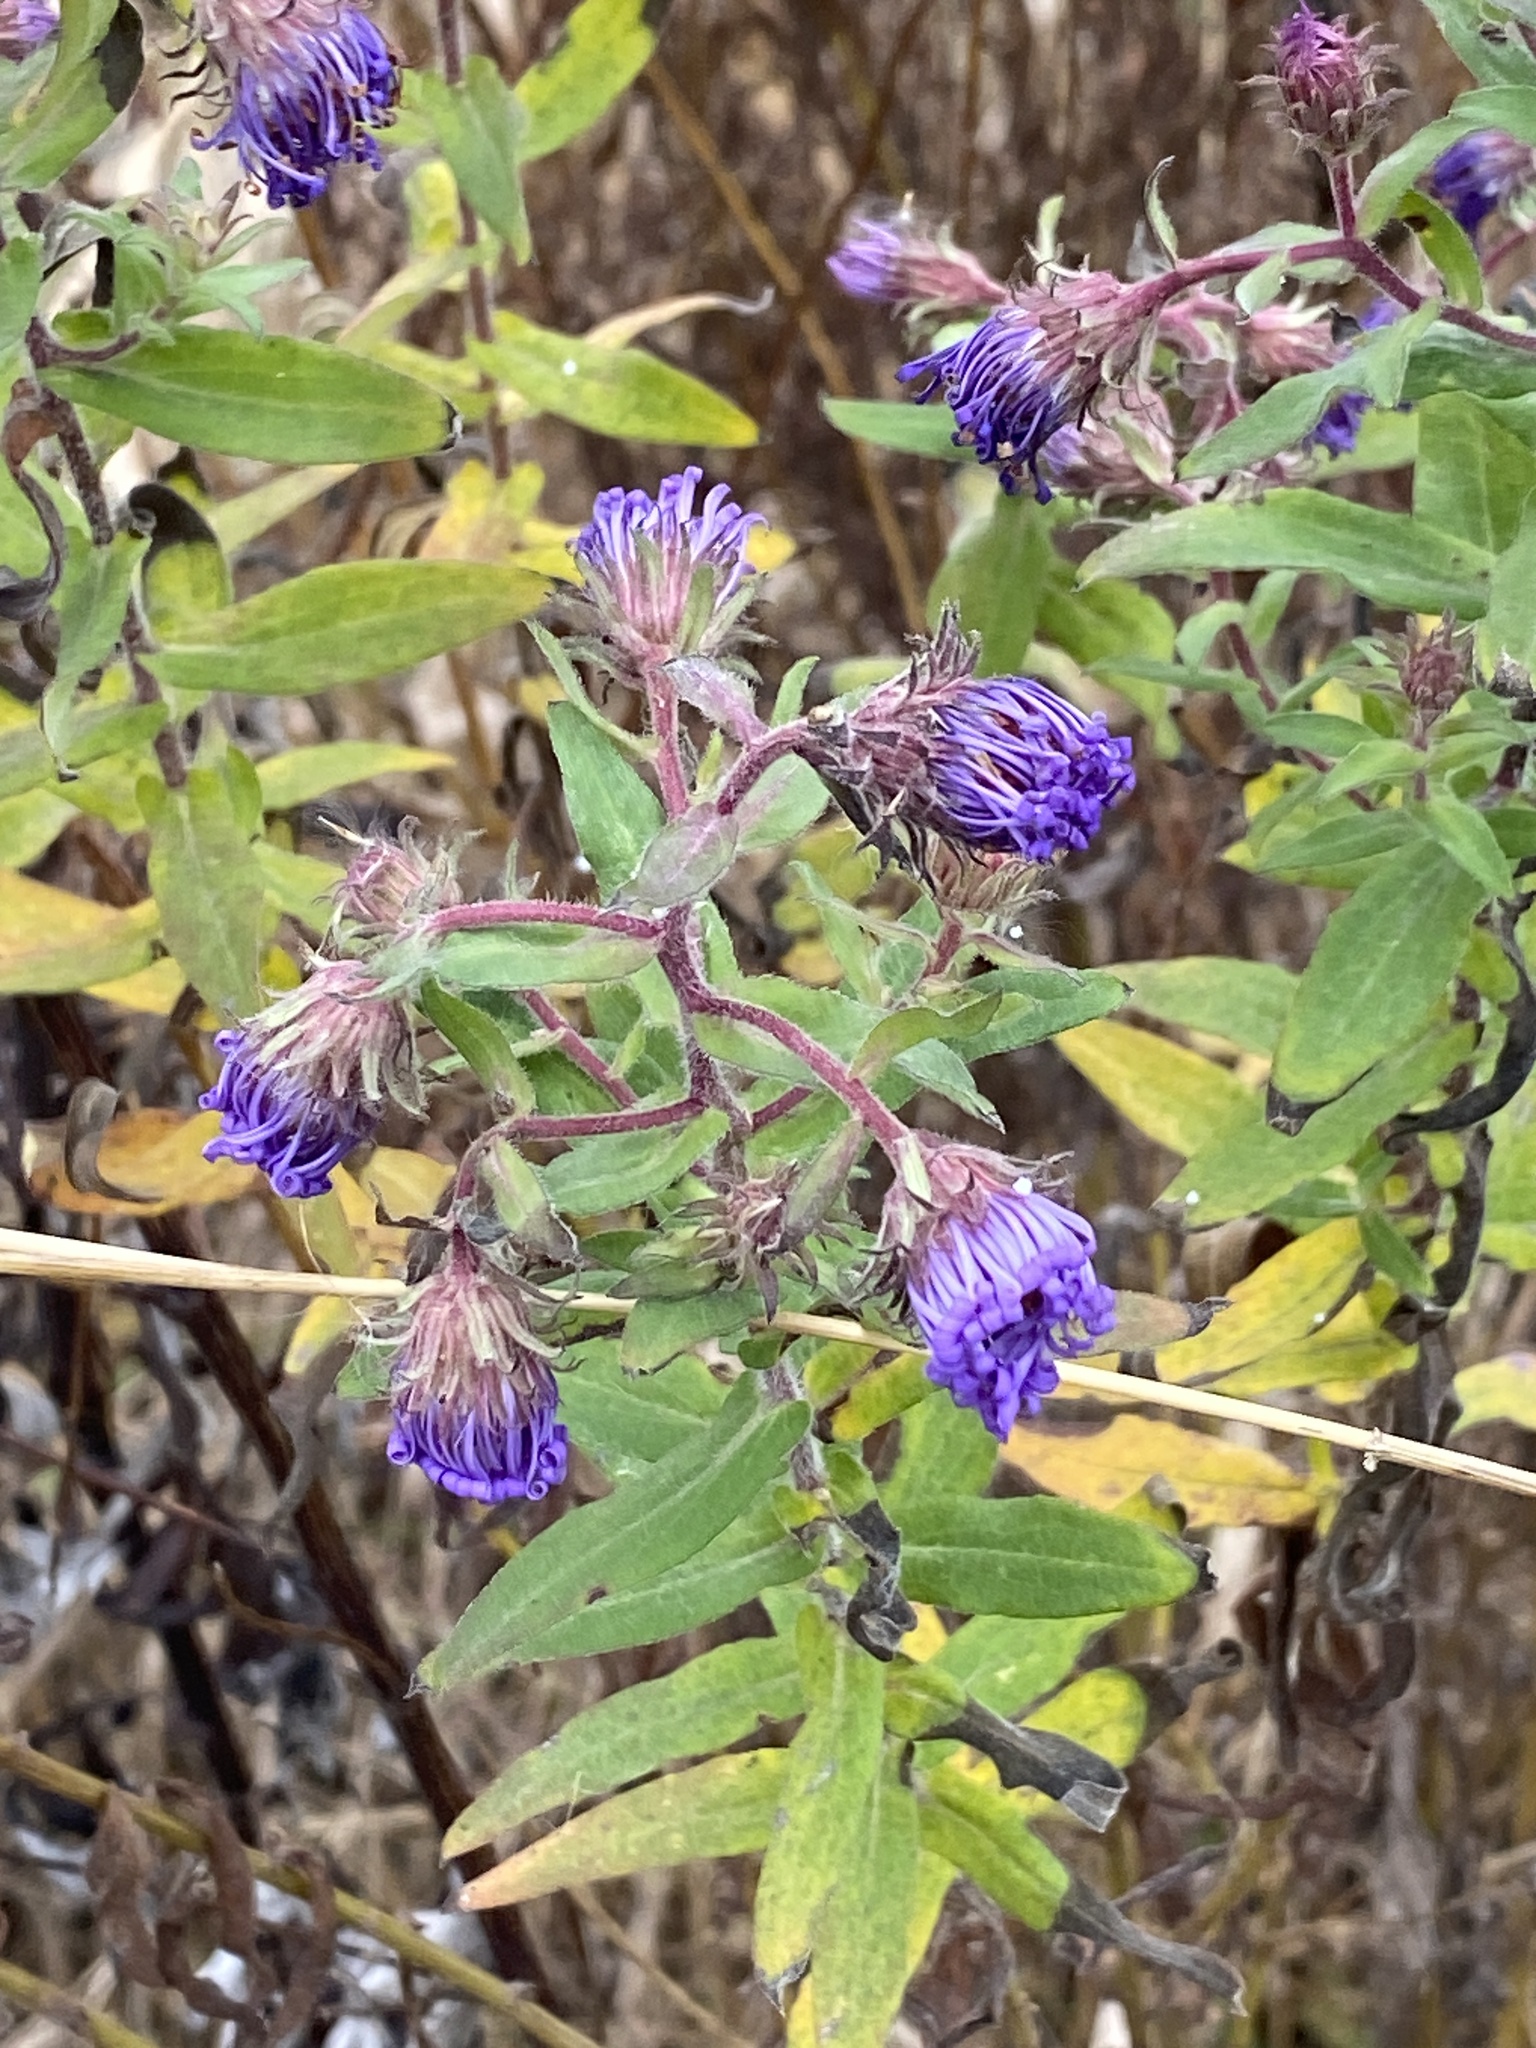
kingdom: Plantae
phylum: Tracheophyta
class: Magnoliopsida
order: Asterales
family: Asteraceae
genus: Symphyotrichum
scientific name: Symphyotrichum novae-angliae
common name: Michaelmas daisy
